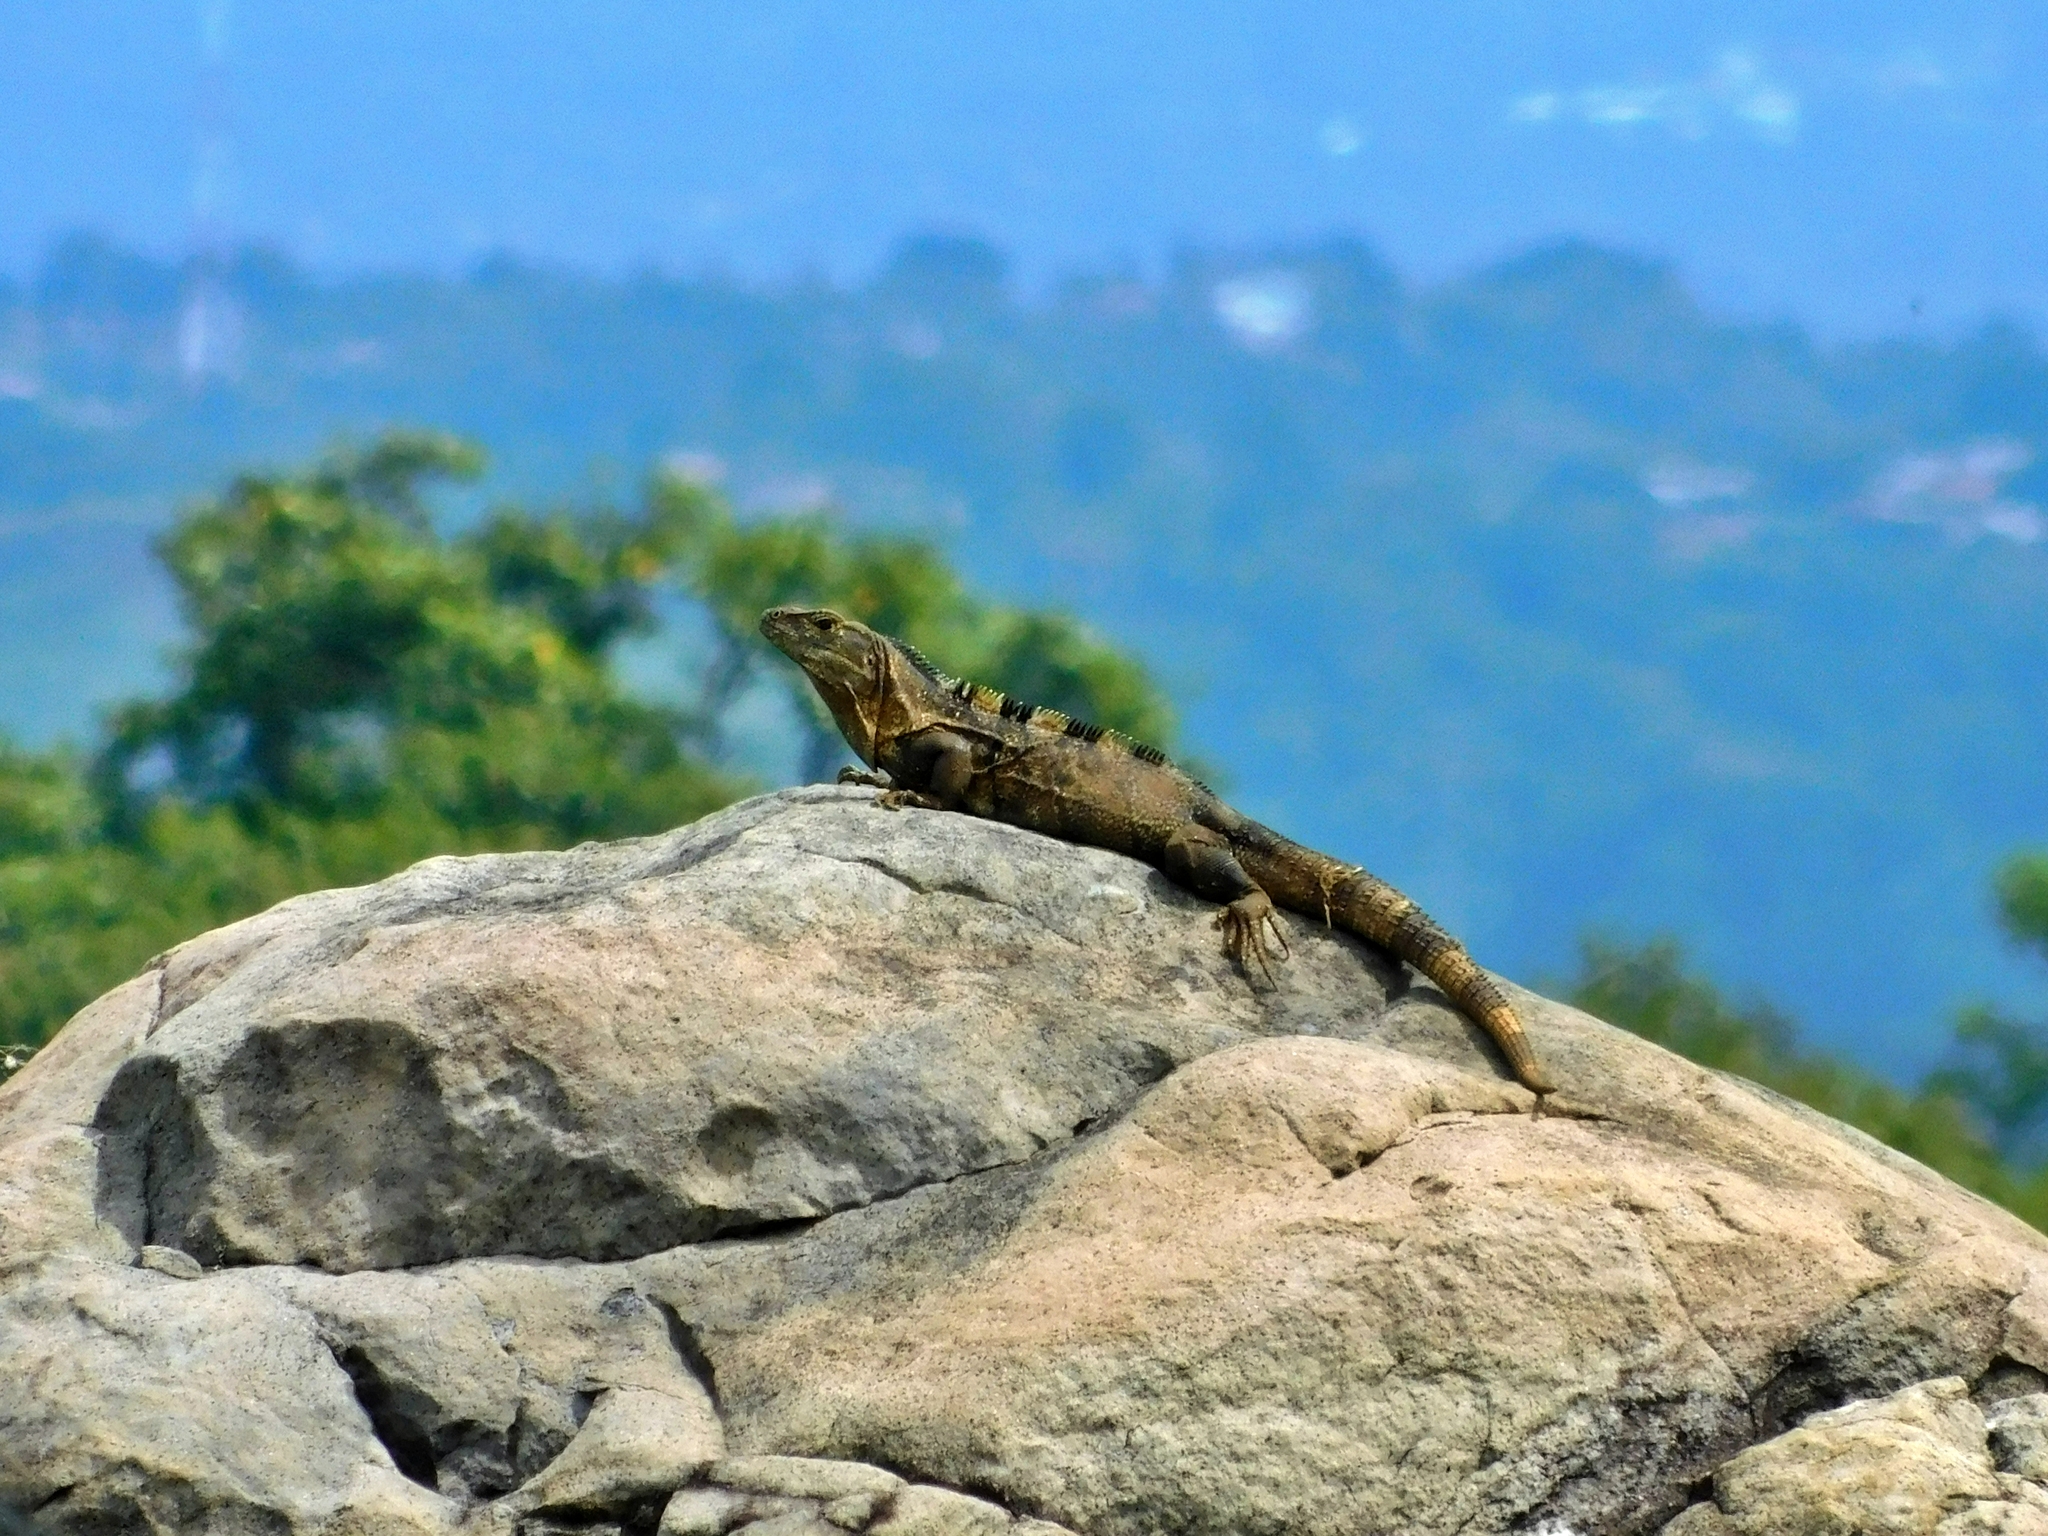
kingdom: Animalia
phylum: Chordata
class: Squamata
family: Iguanidae
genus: Ctenosaura
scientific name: Ctenosaura similis
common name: Black spiny-tailed iguana
